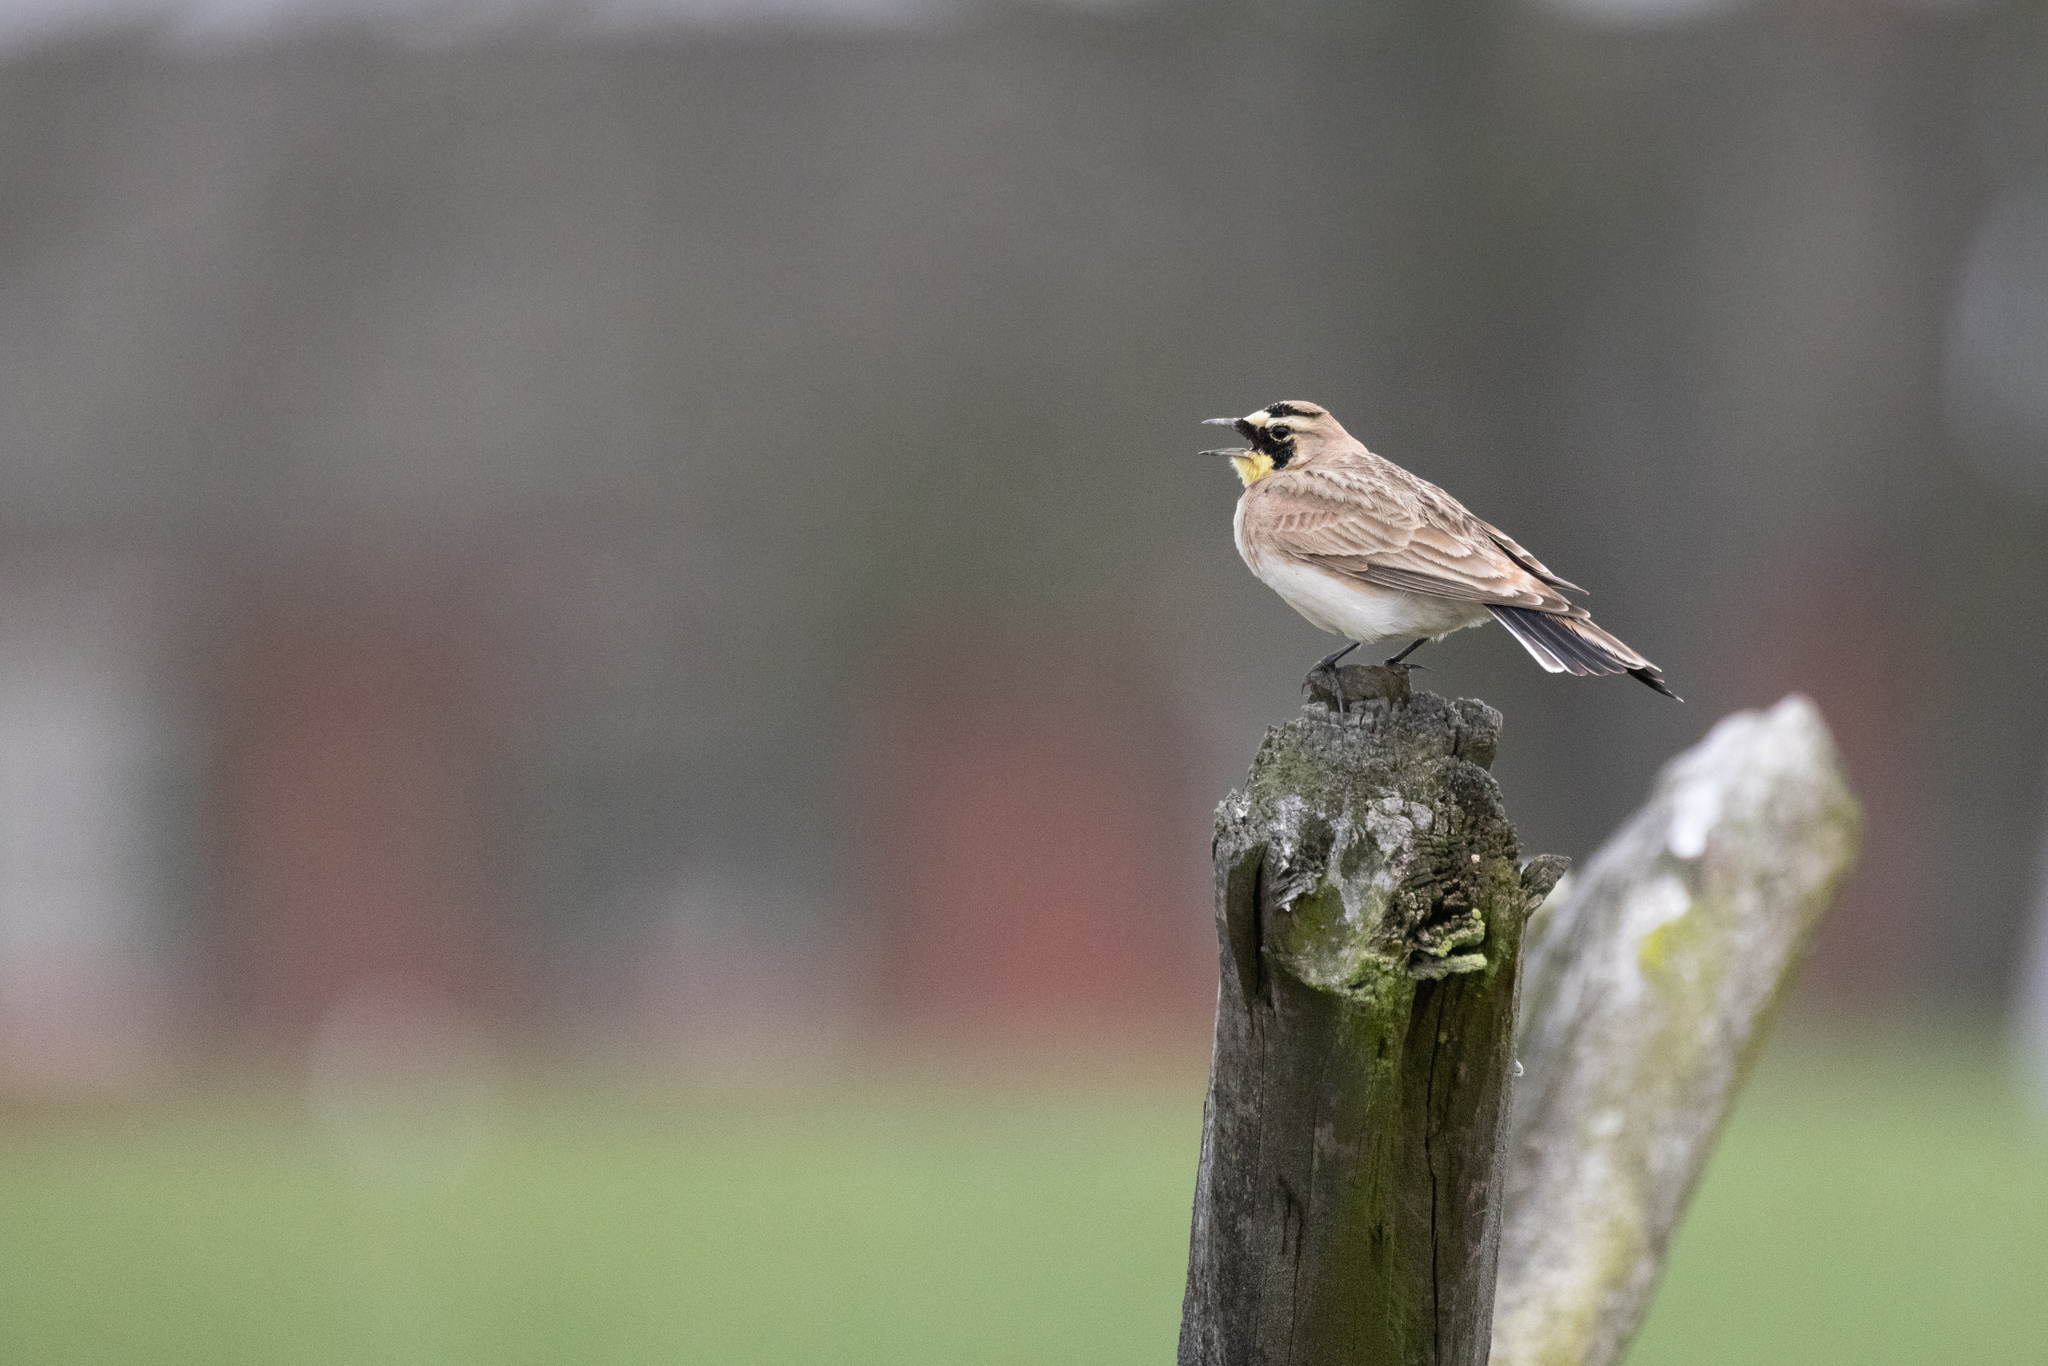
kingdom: Animalia
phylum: Chordata
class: Aves
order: Passeriformes
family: Alaudidae
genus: Eremophila
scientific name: Eremophila alpestris
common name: Horned lark
